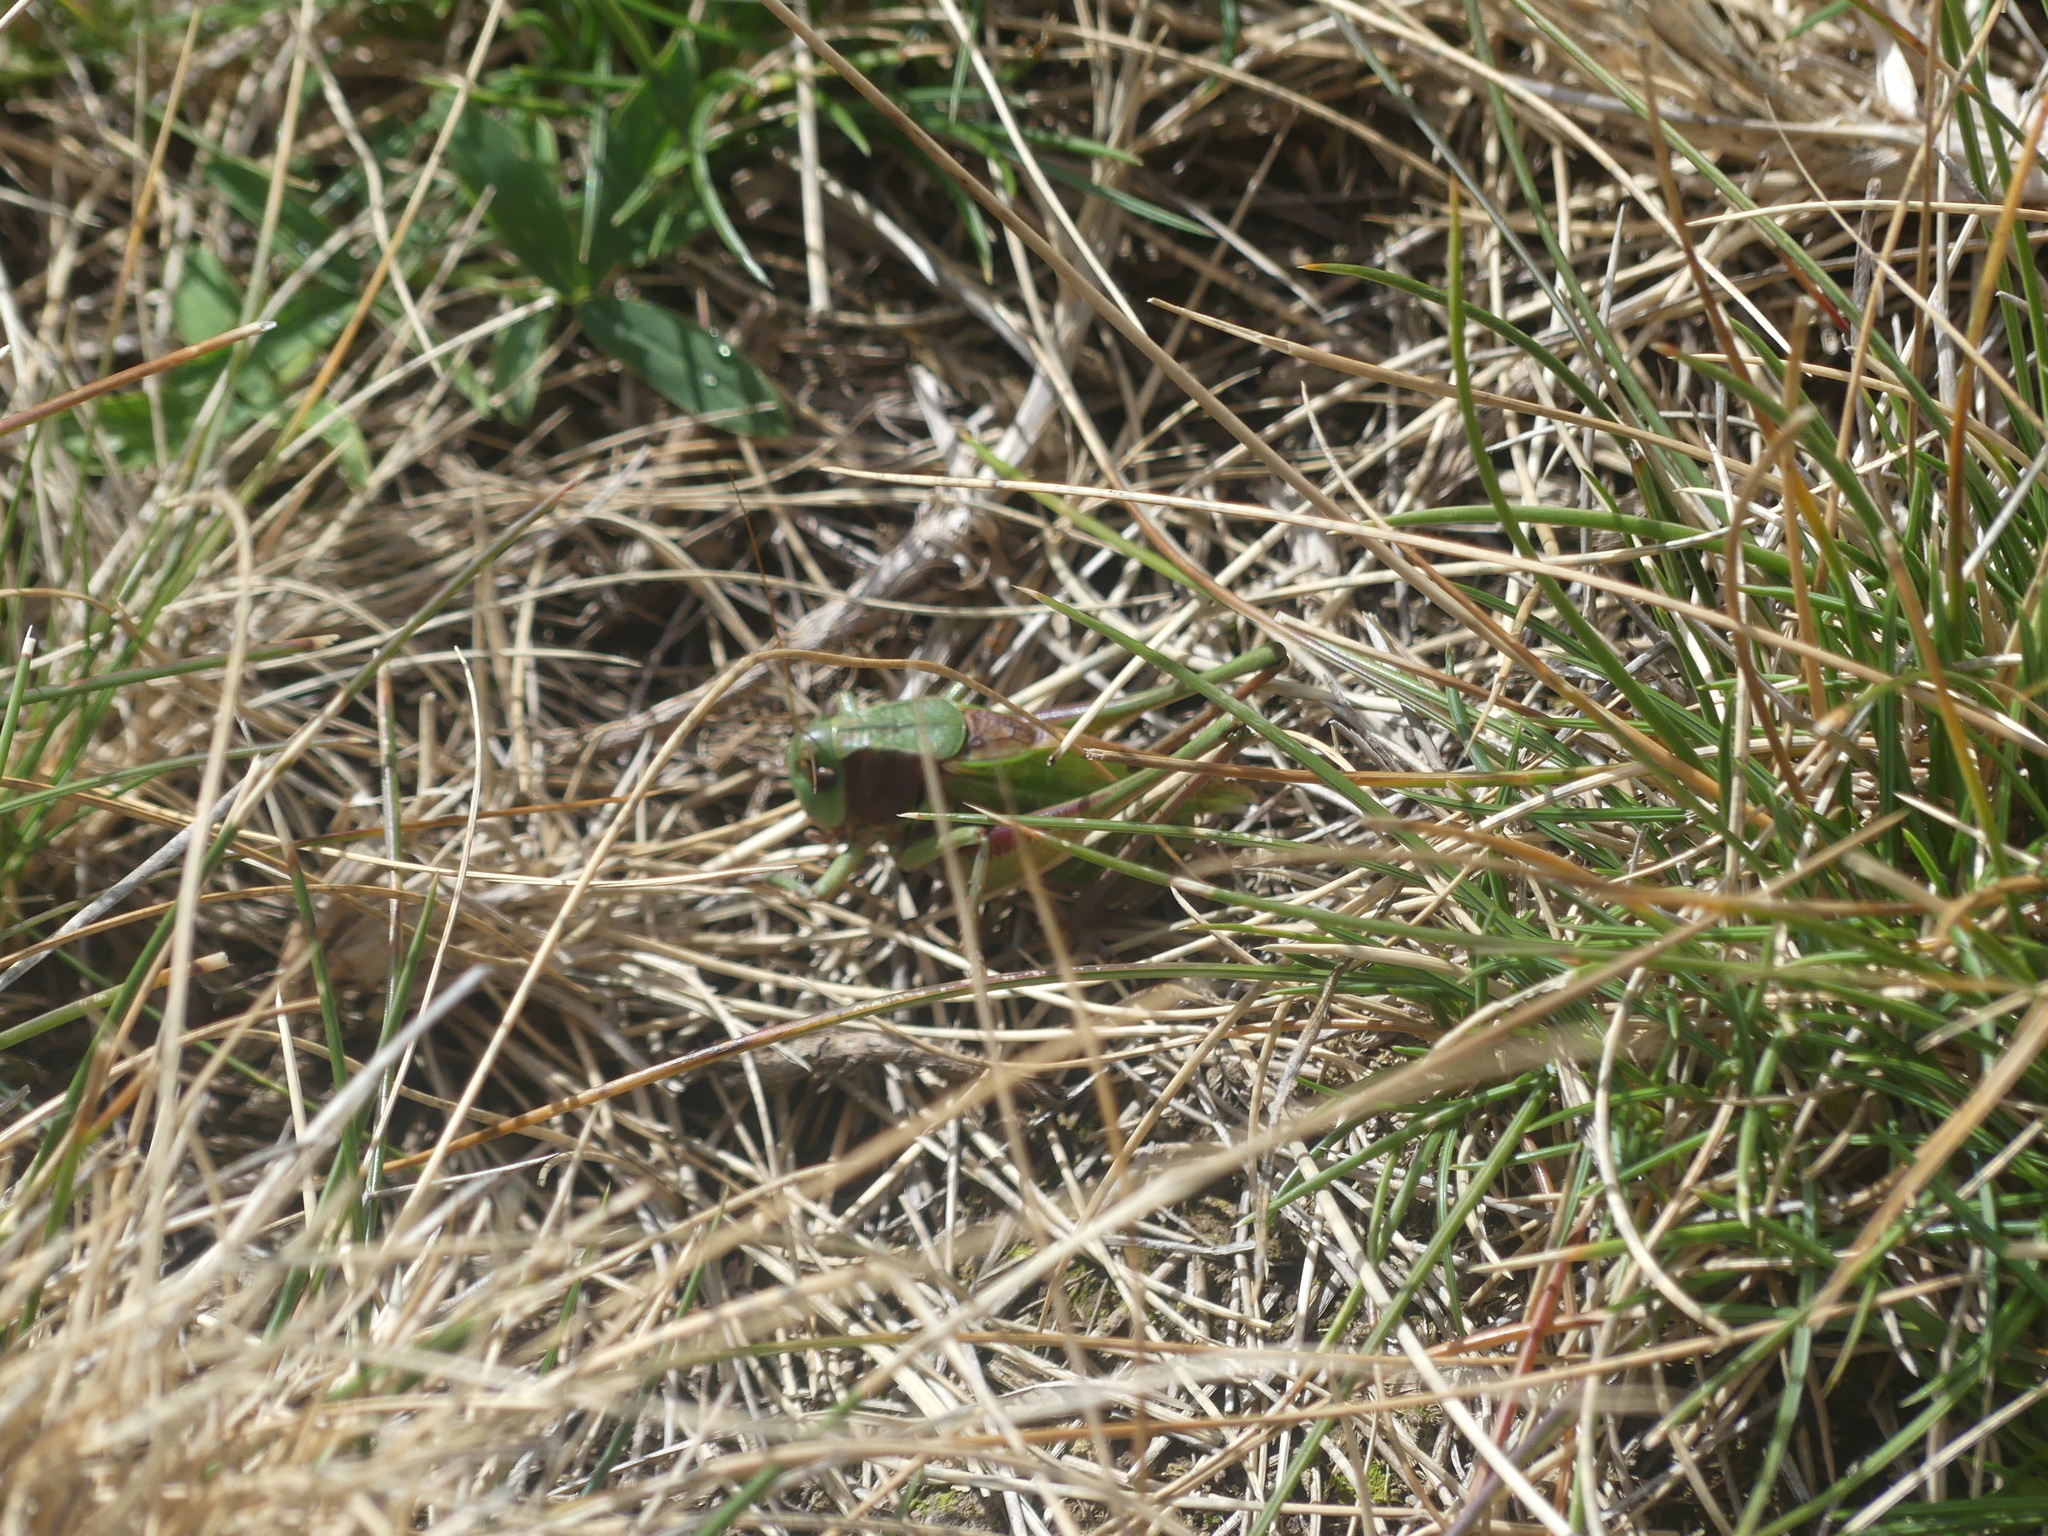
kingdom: Animalia
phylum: Arthropoda
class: Insecta
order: Orthoptera
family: Tettigoniidae
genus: Decticus
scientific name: Decticus verrucivorus
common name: Wart-biter
